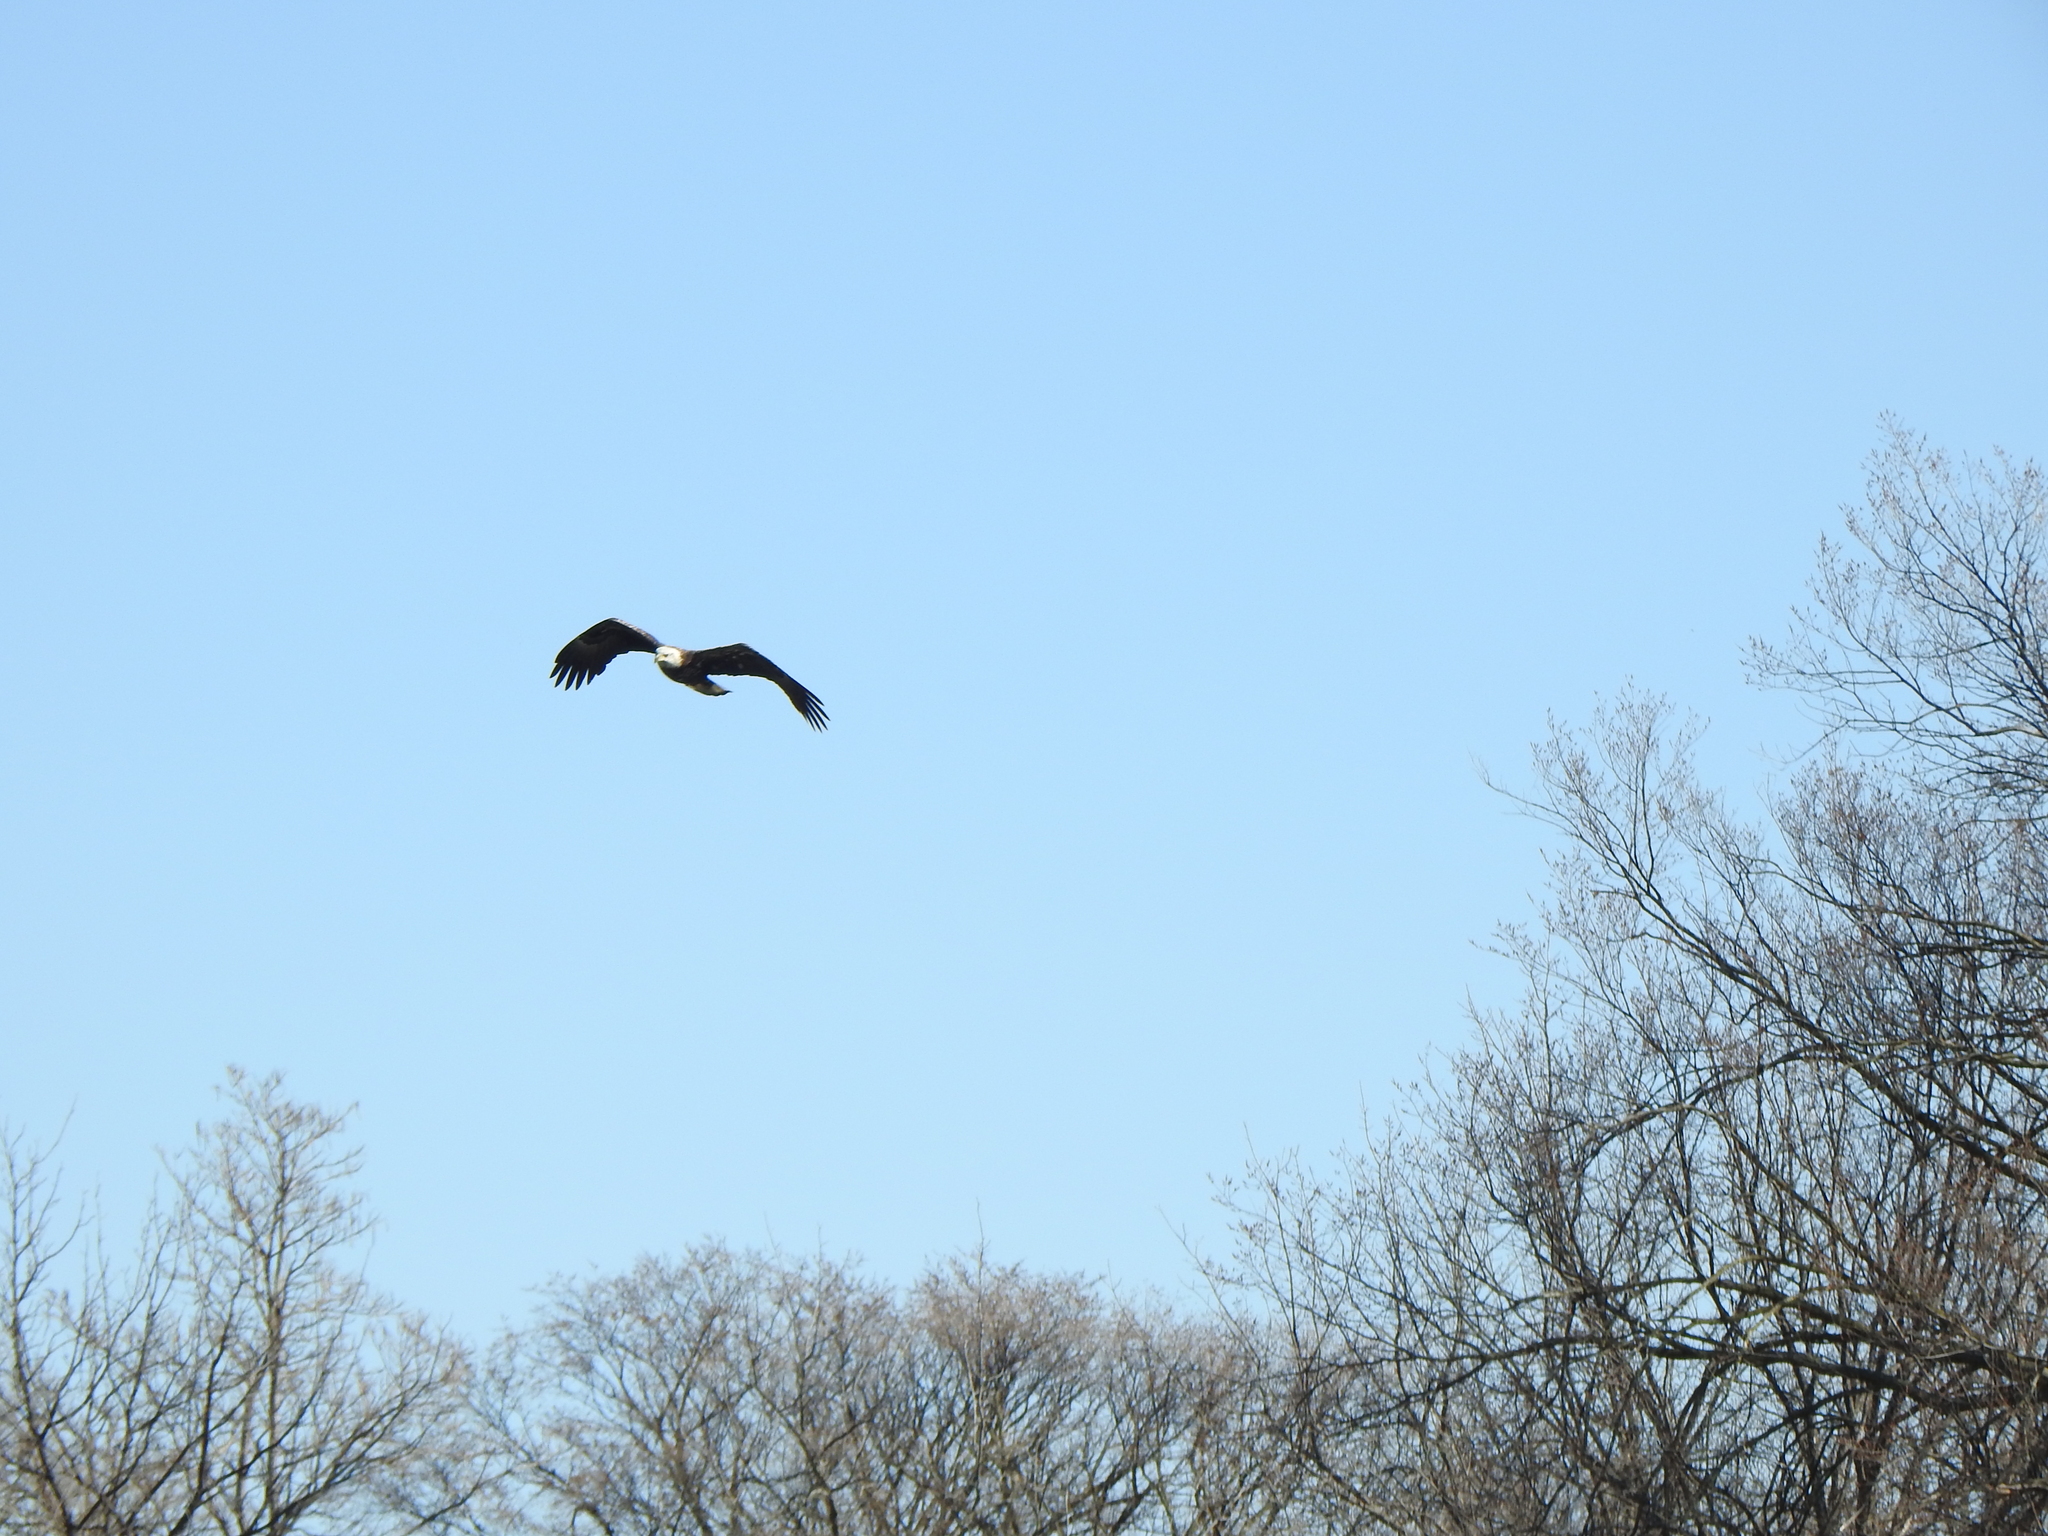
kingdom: Animalia
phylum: Chordata
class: Aves
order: Accipitriformes
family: Accipitridae
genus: Haliaeetus
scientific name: Haliaeetus leucocephalus
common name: Bald eagle
